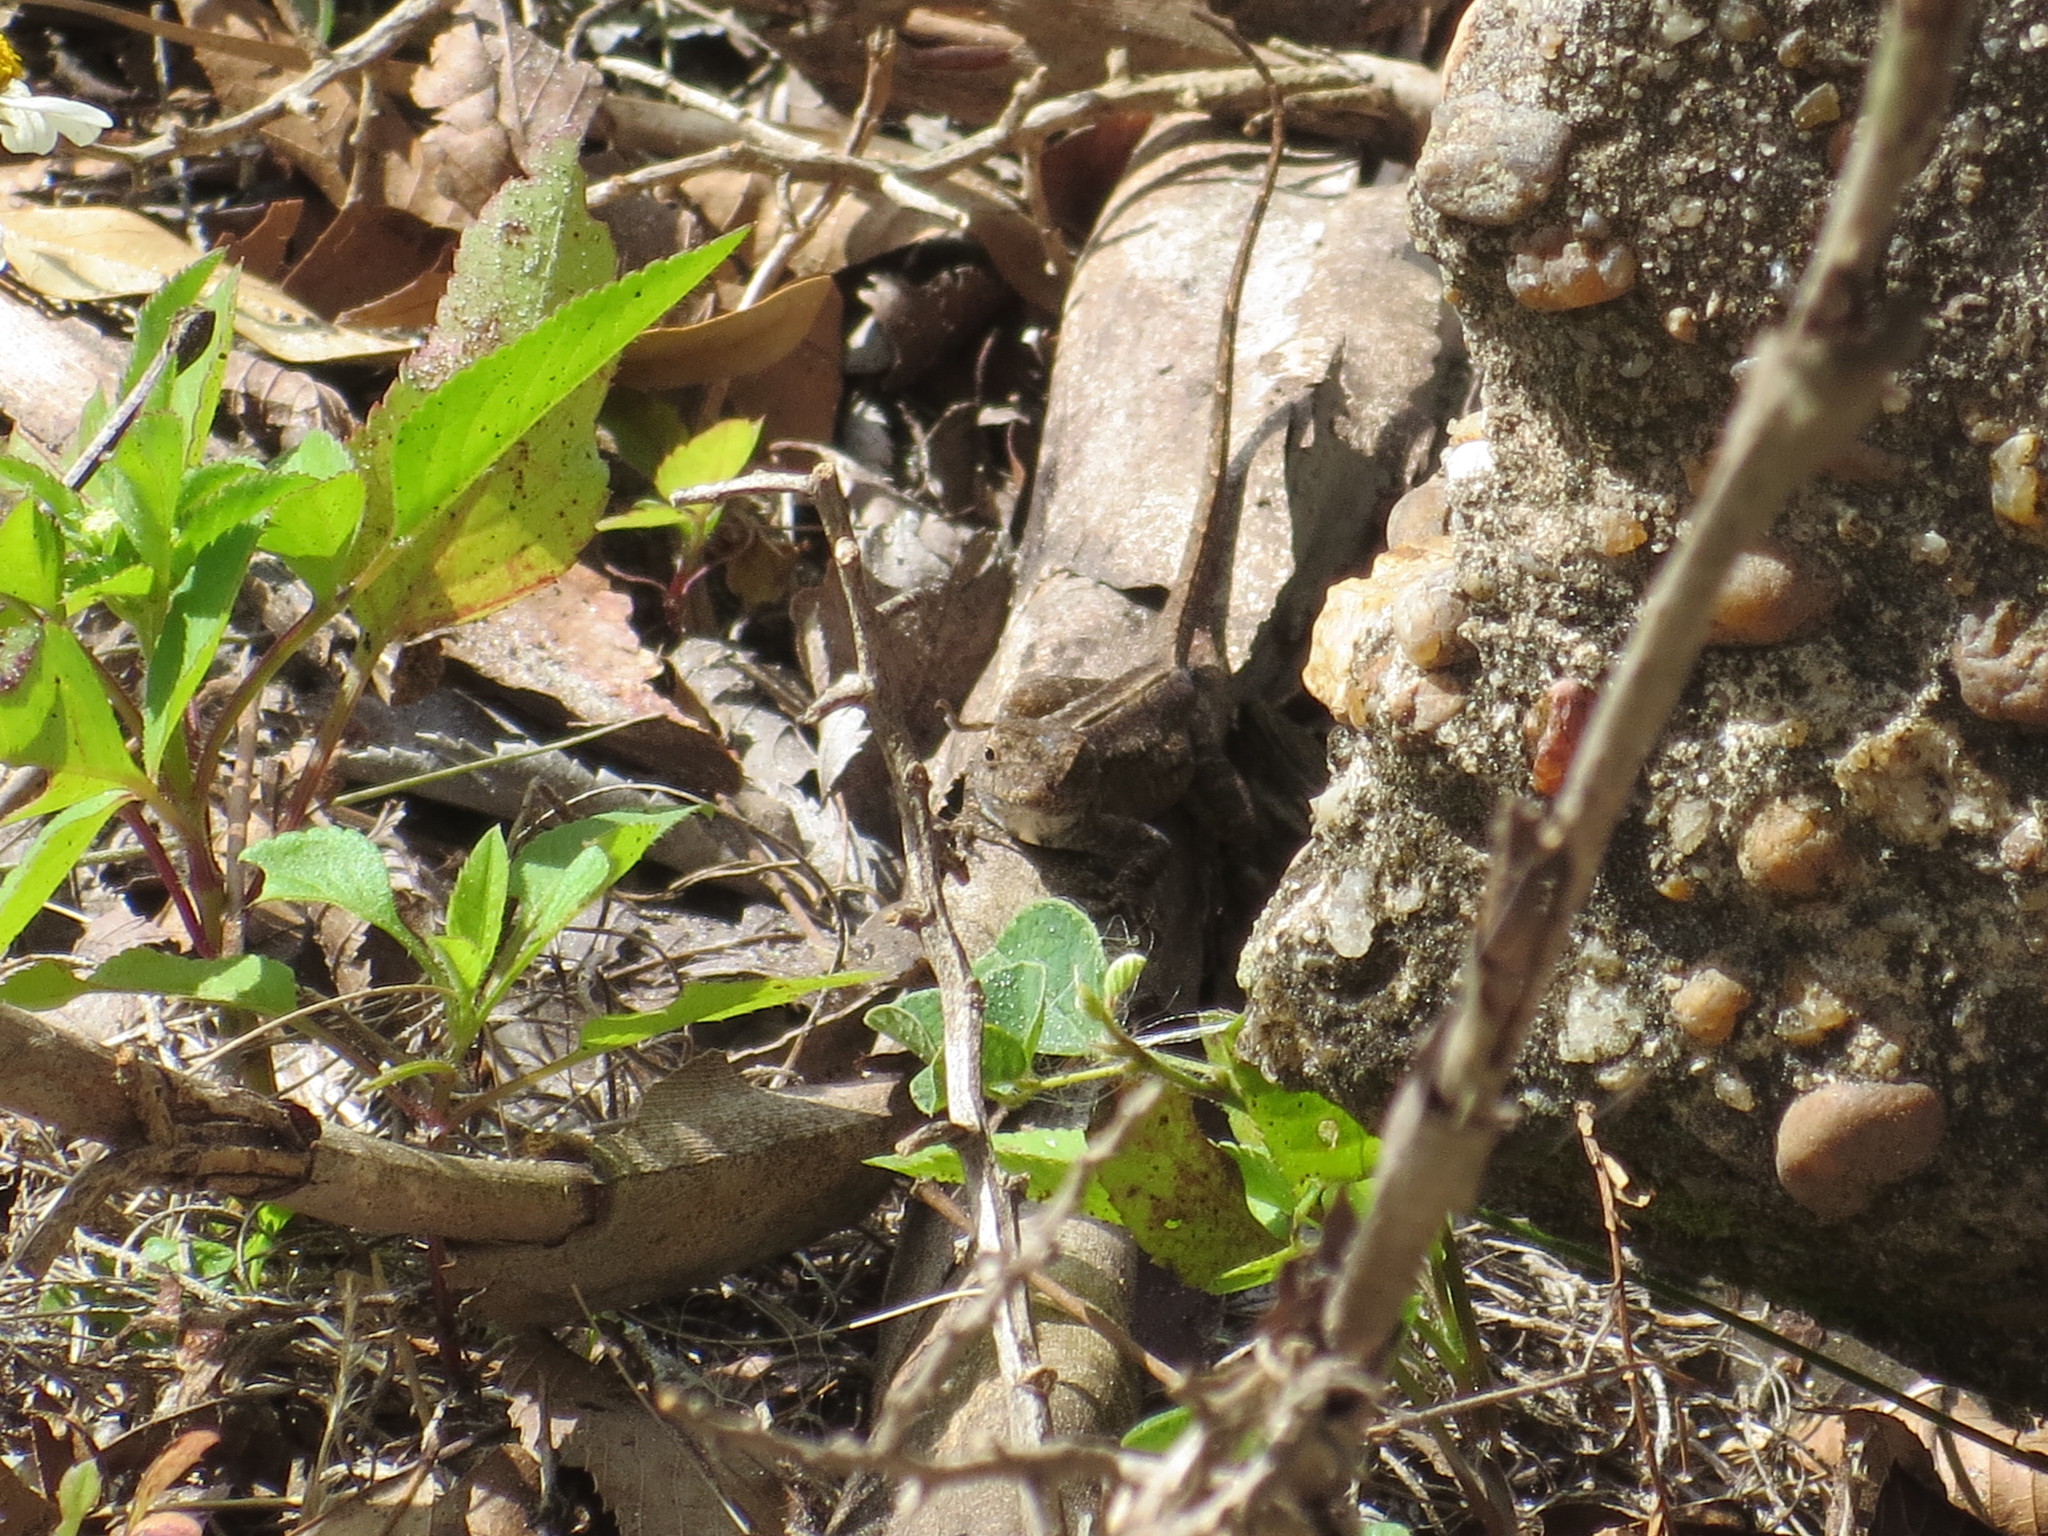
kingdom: Animalia
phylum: Chordata
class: Squamata
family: Dactyloidae
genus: Anolis
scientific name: Anolis sagrei
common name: Brown anole
